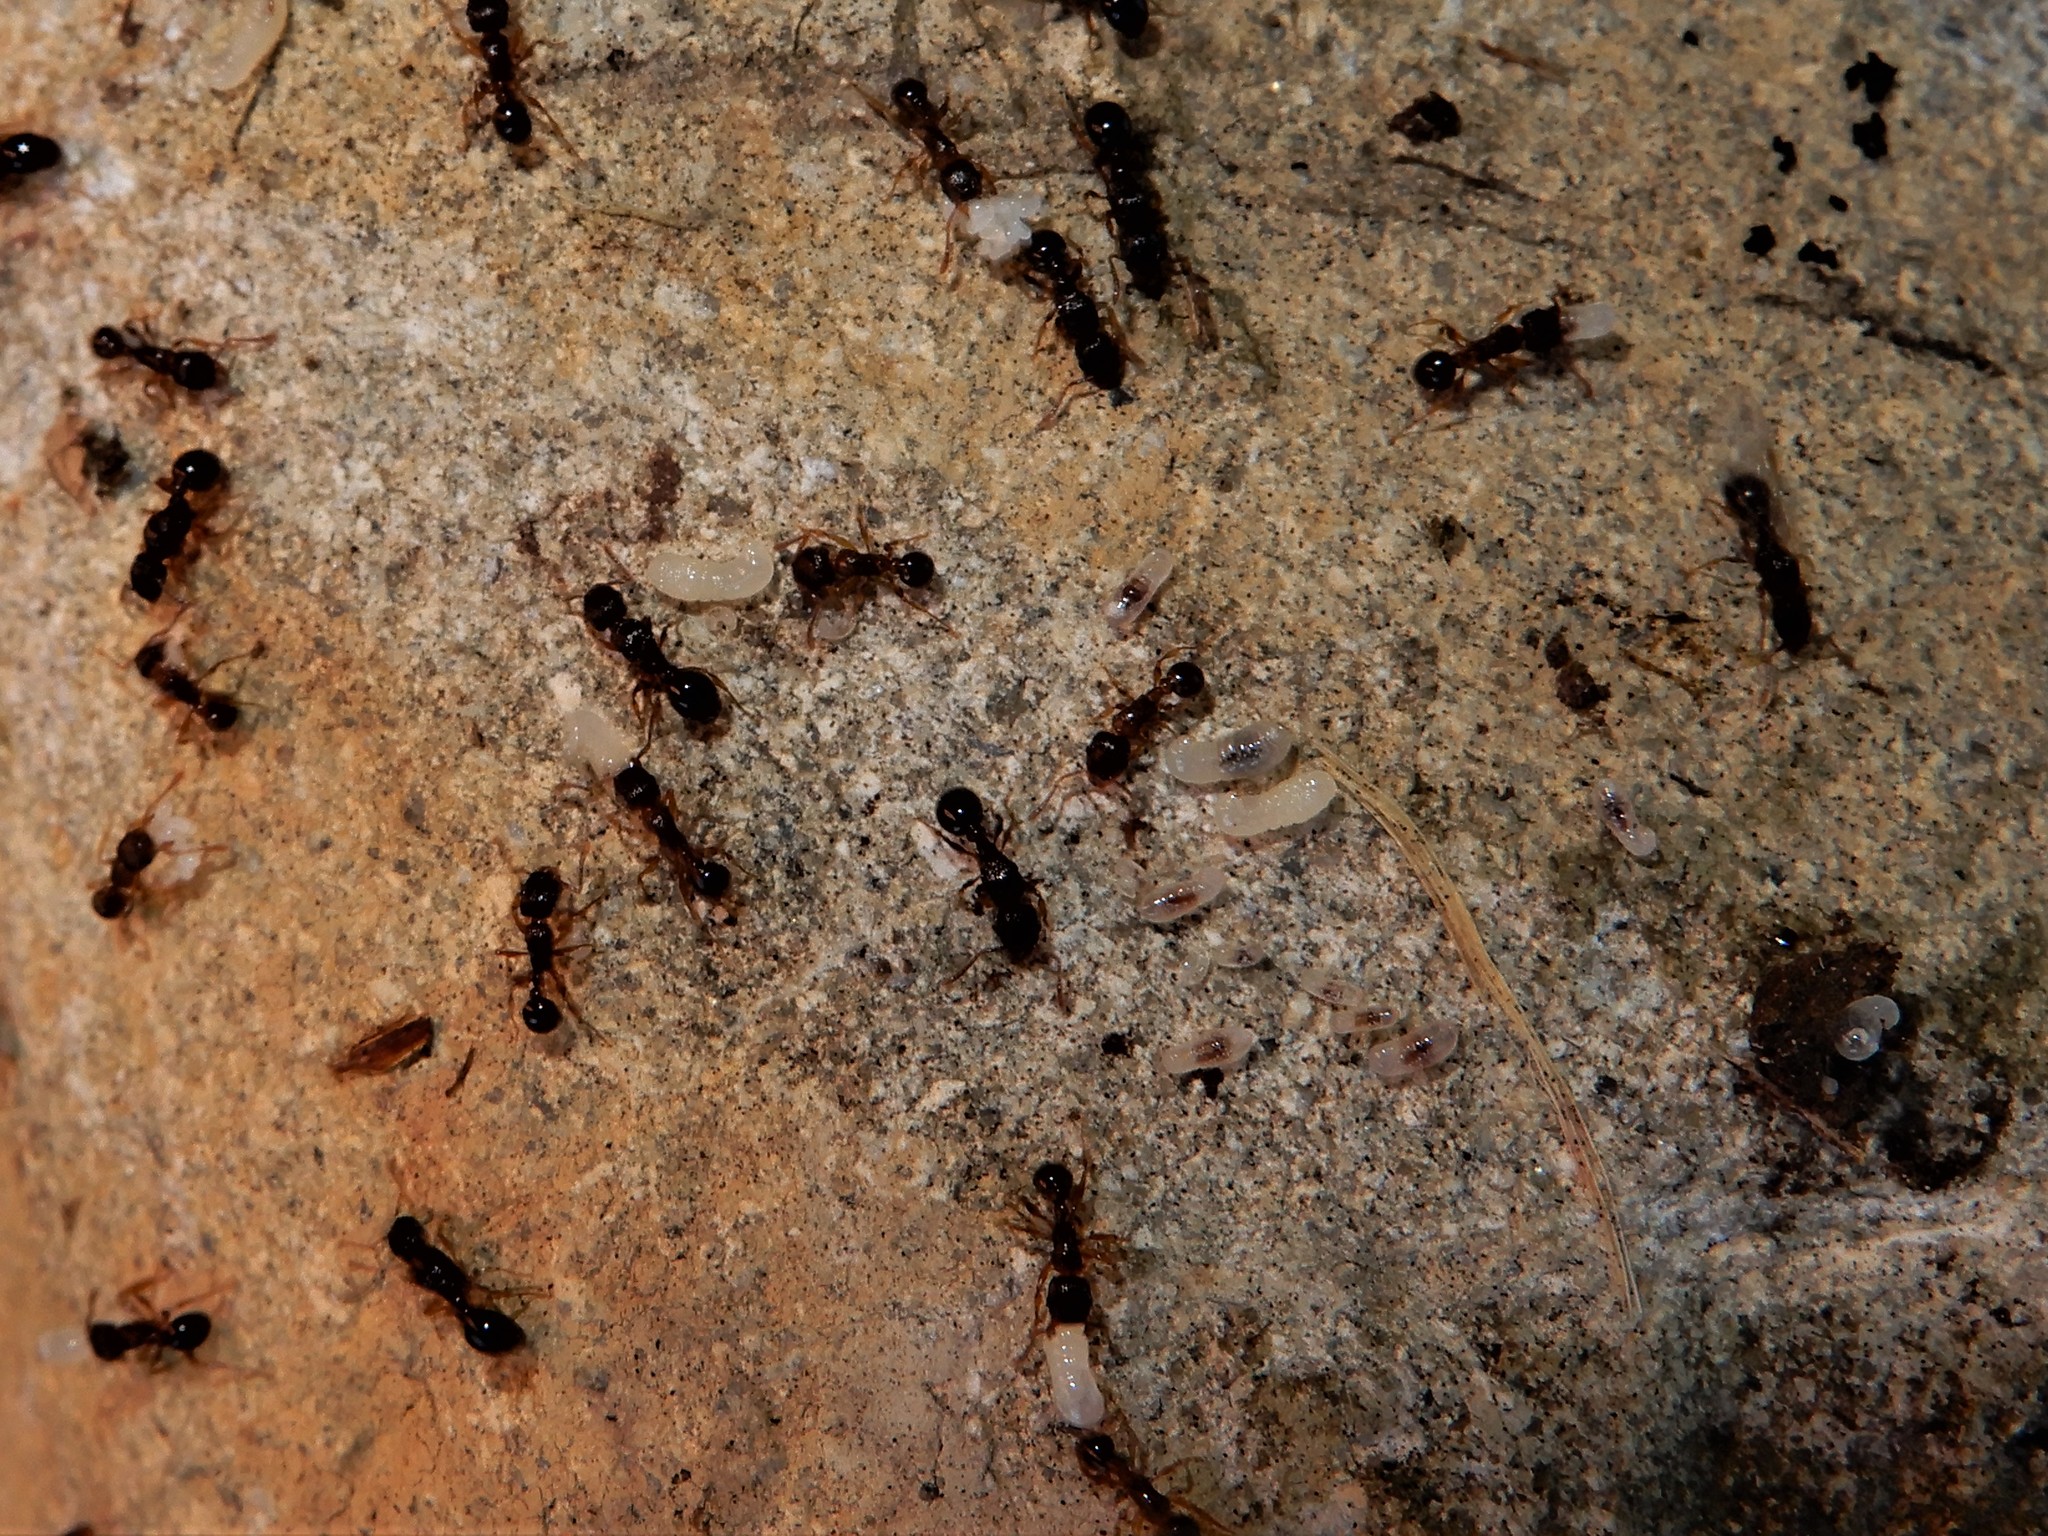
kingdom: Animalia
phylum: Arthropoda
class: Insecta
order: Hymenoptera
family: Formicidae
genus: Tetramorium
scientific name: Tetramorium grassii
